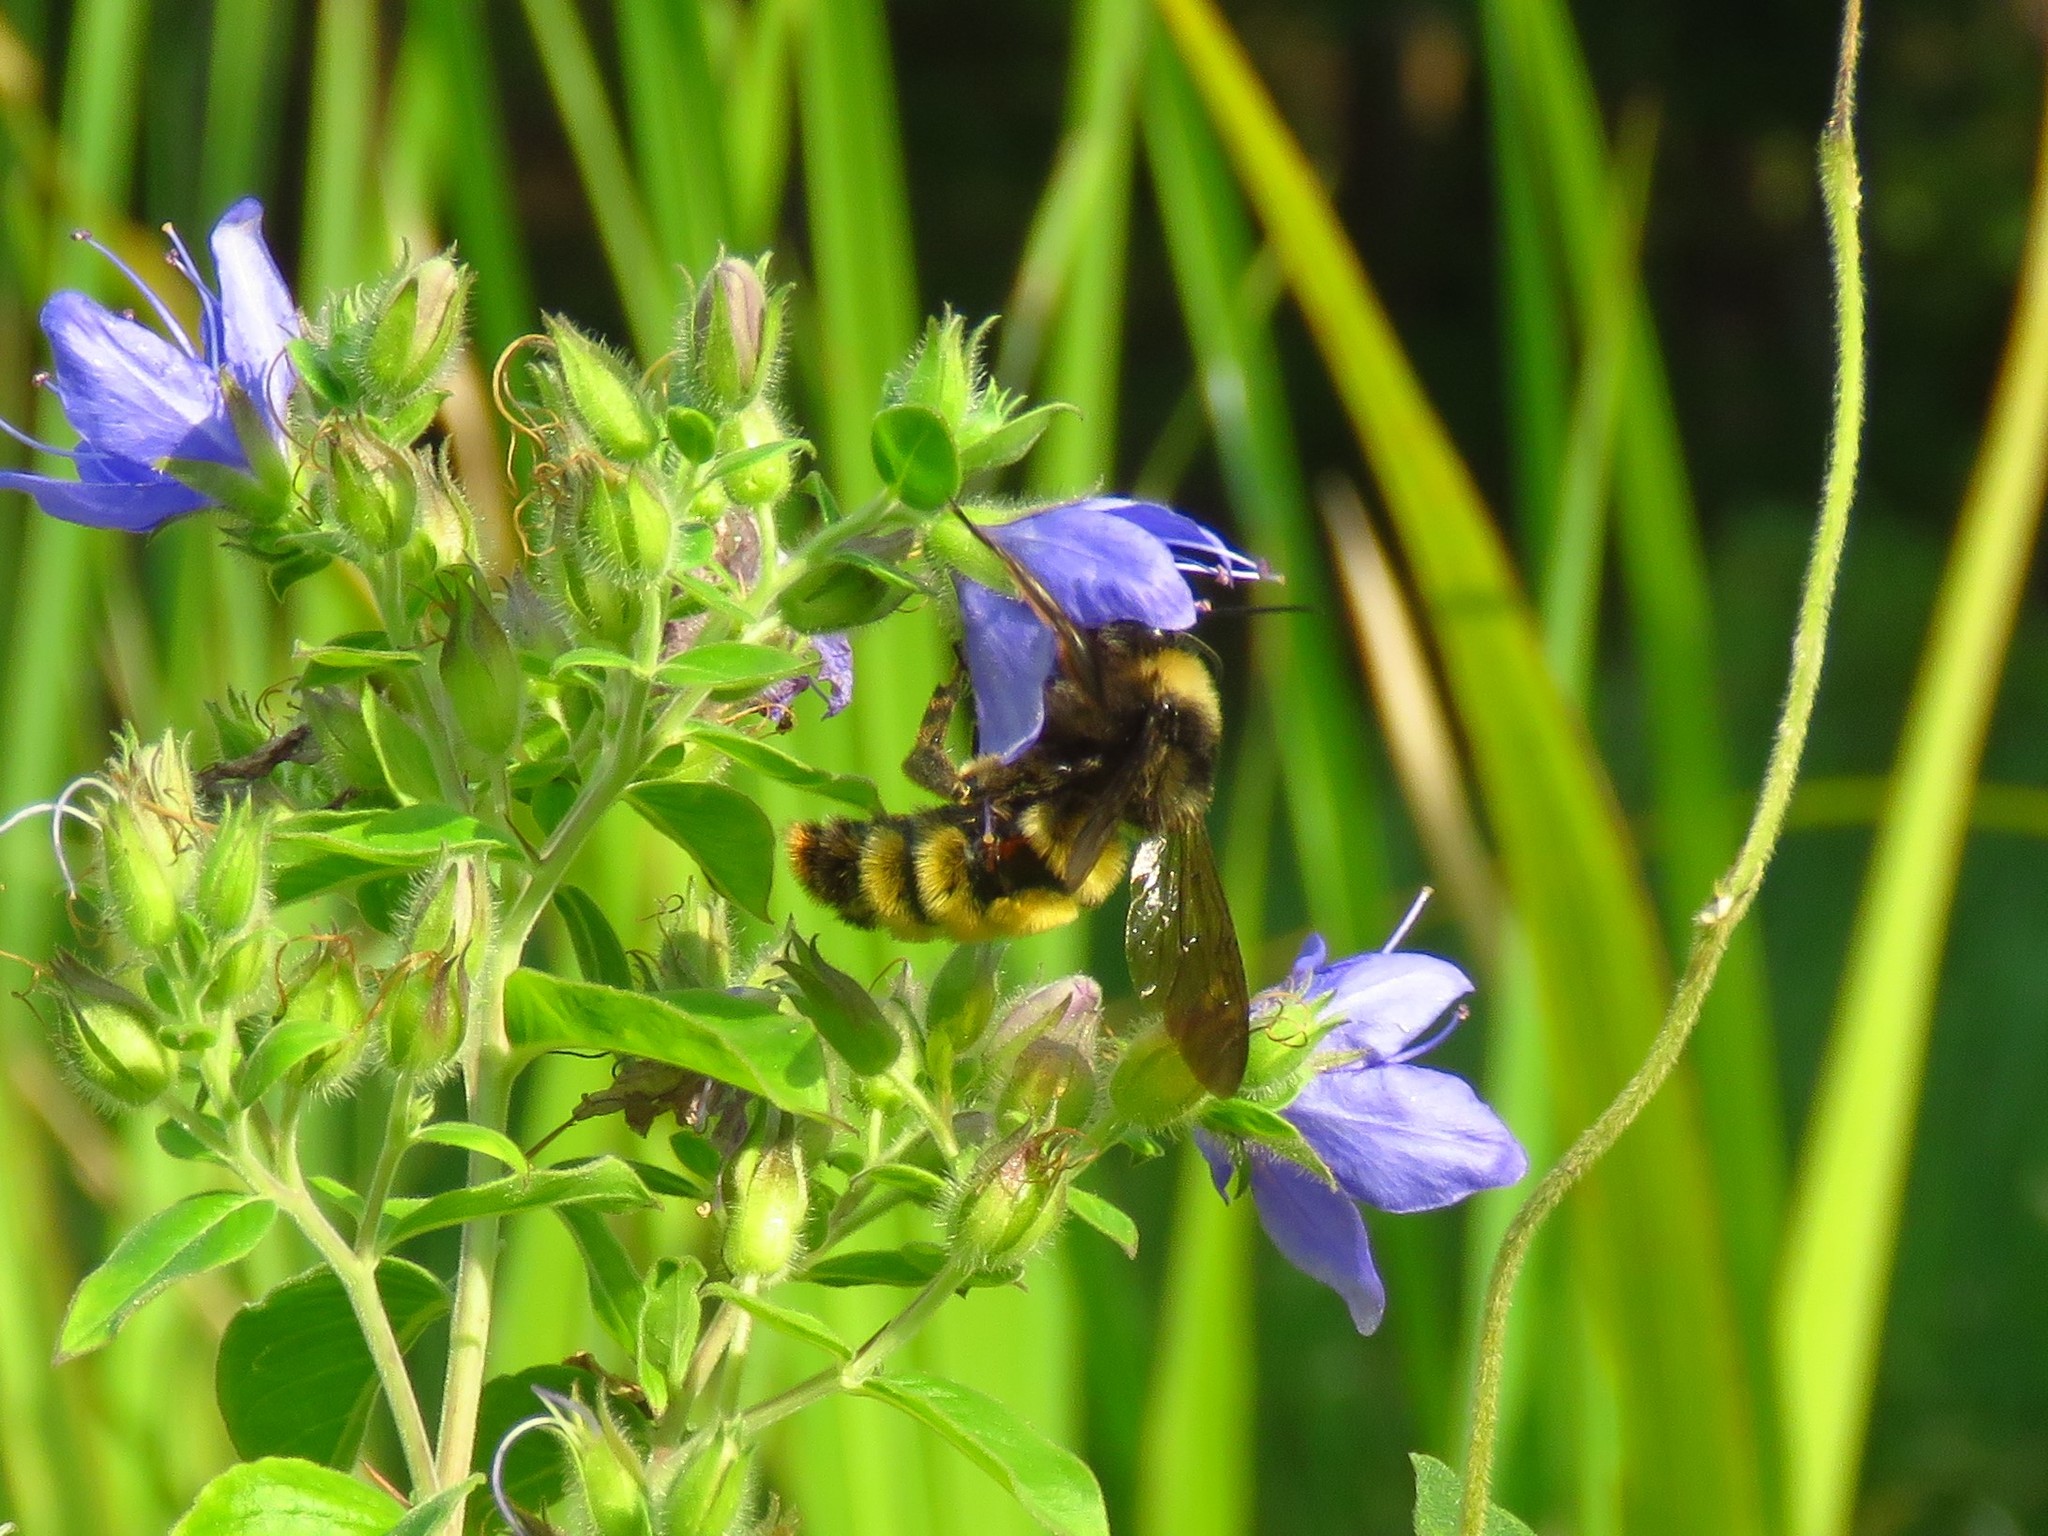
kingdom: Animalia
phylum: Arthropoda
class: Insecta
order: Hymenoptera
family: Apidae
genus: Bombus
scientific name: Bombus pensylvanicus
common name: Bumble bee
